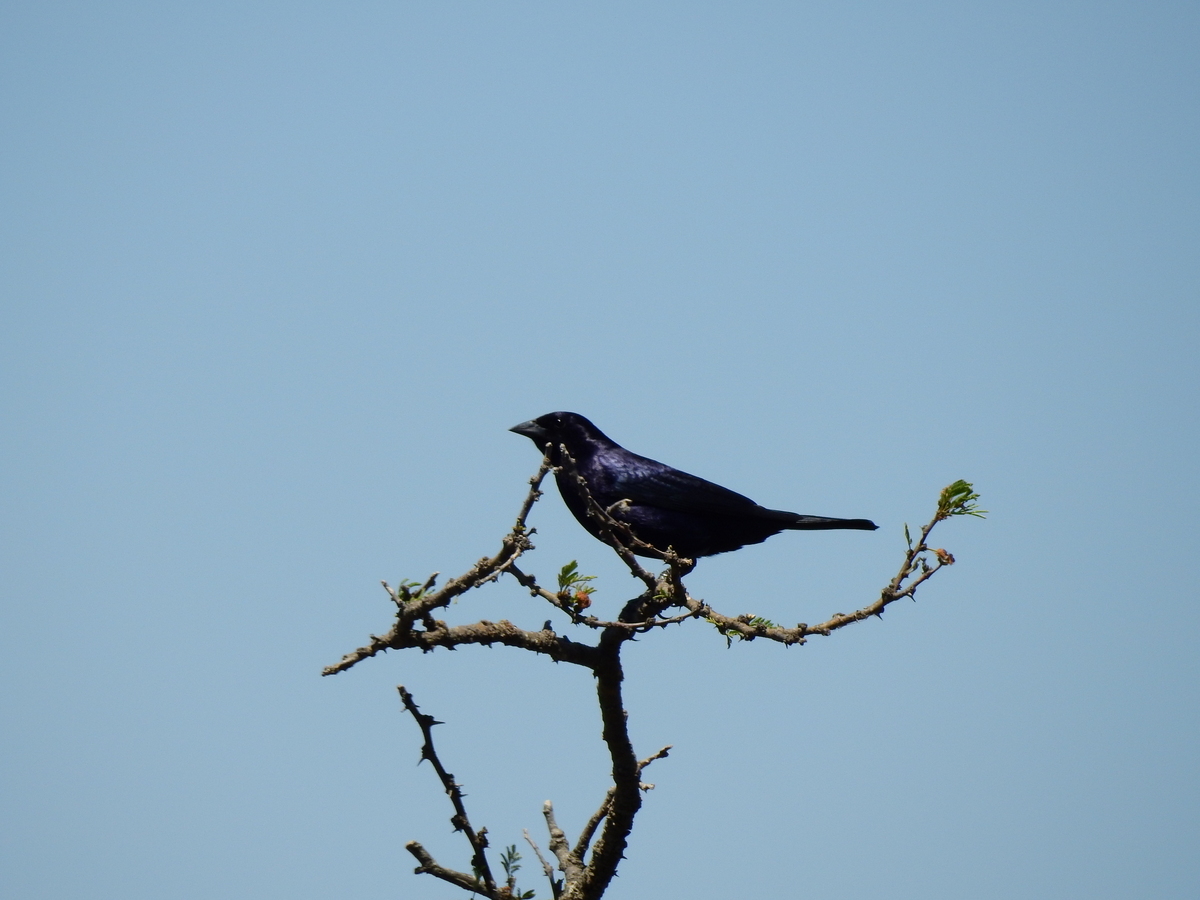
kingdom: Animalia
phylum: Chordata
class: Aves
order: Passeriformes
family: Icteridae
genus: Molothrus
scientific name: Molothrus bonariensis
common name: Shiny cowbird
